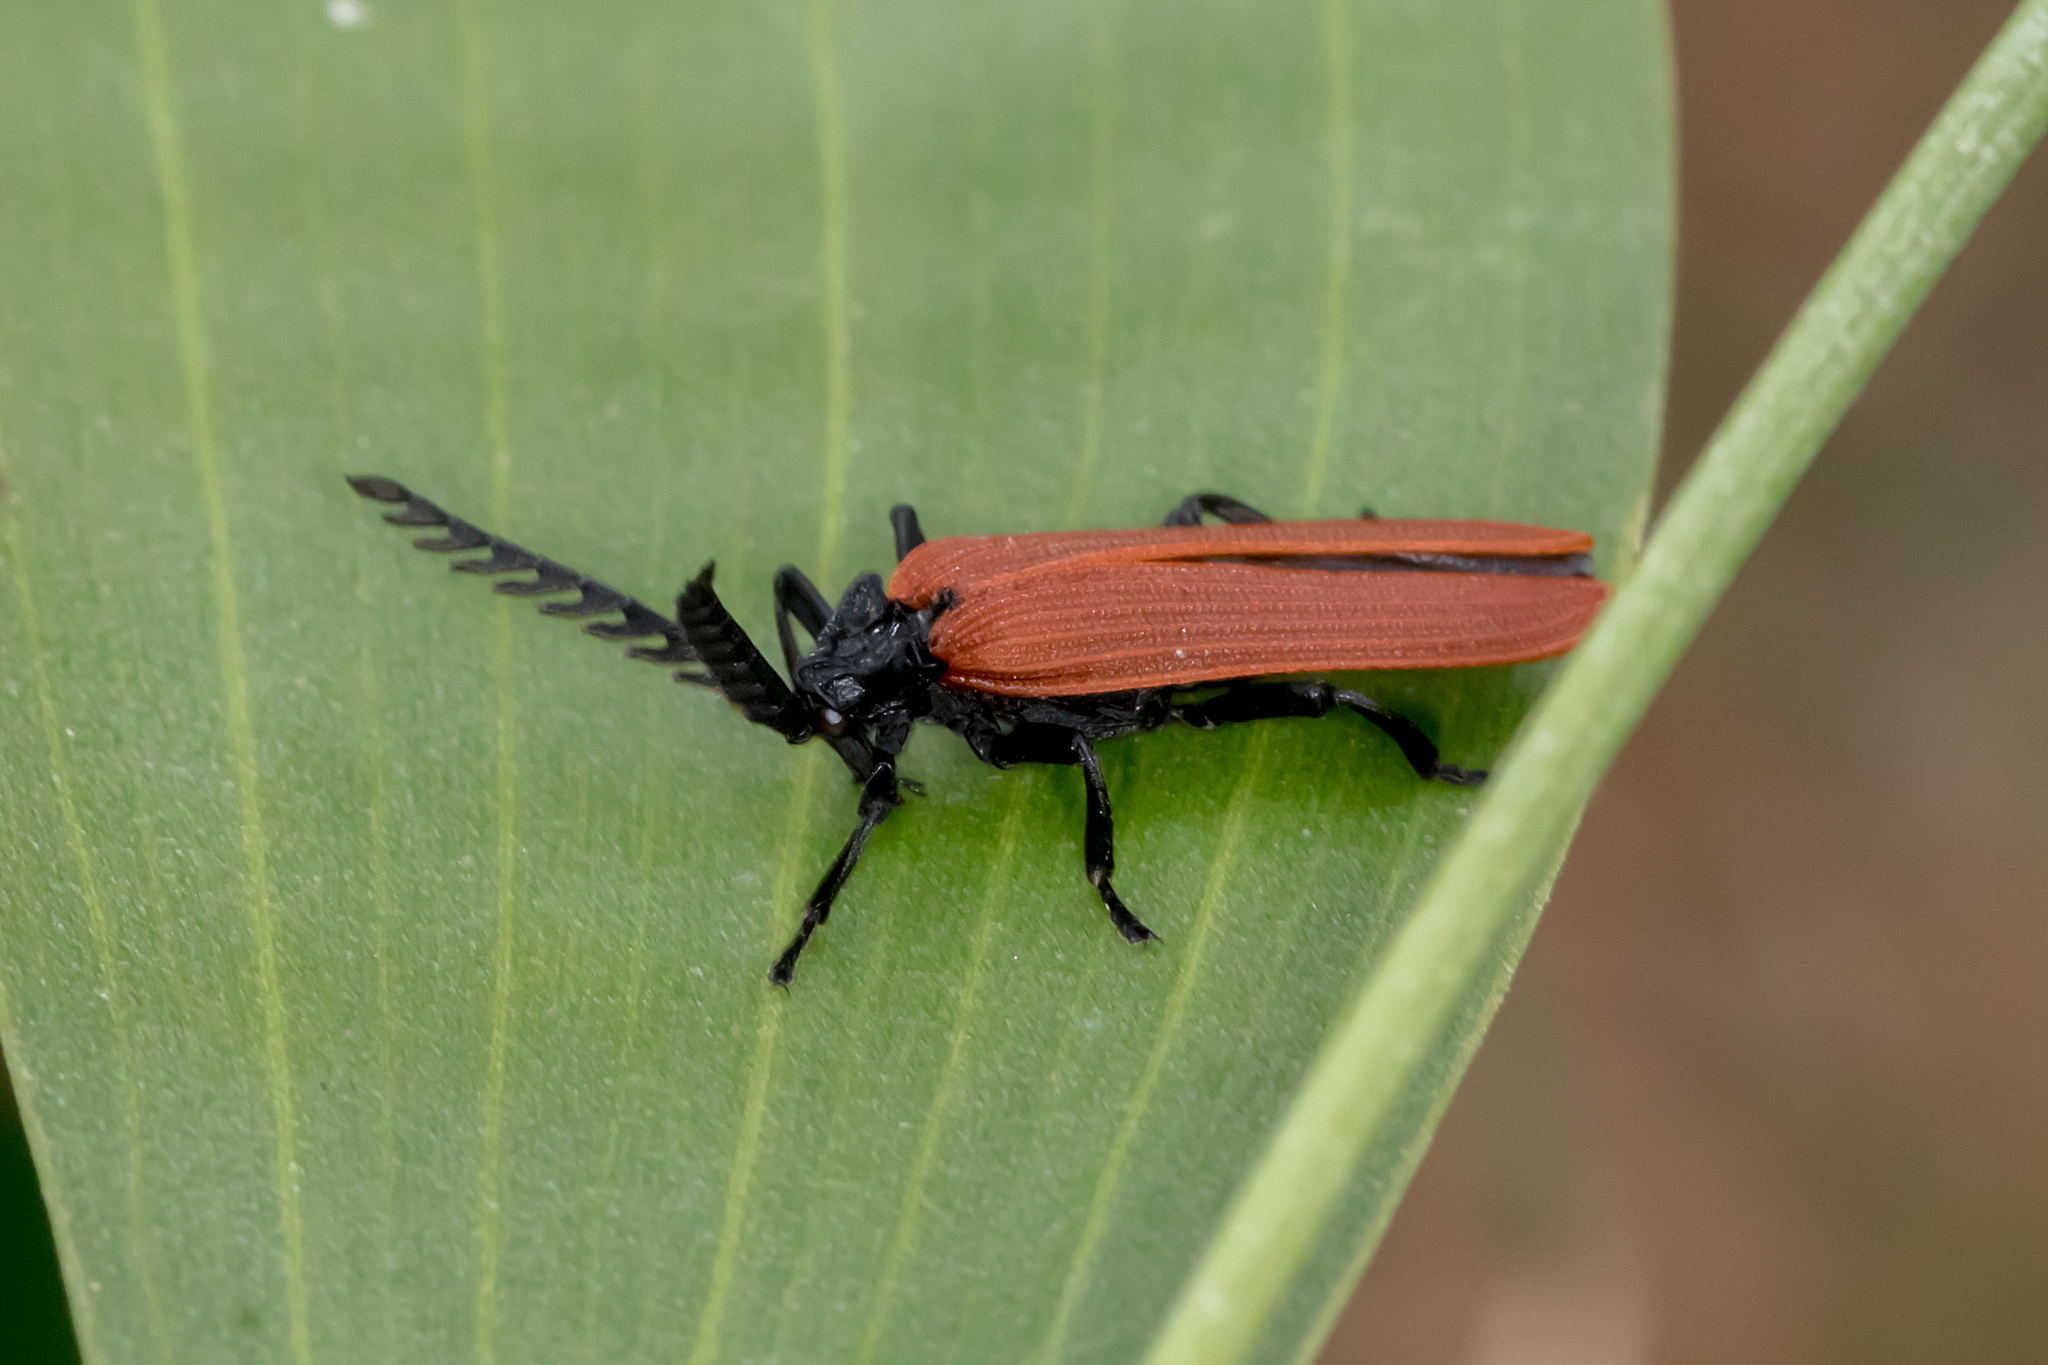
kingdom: Animalia
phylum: Arthropoda
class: Insecta
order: Coleoptera
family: Lycidae
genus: Porrostoma
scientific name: Porrostoma rhipidium
